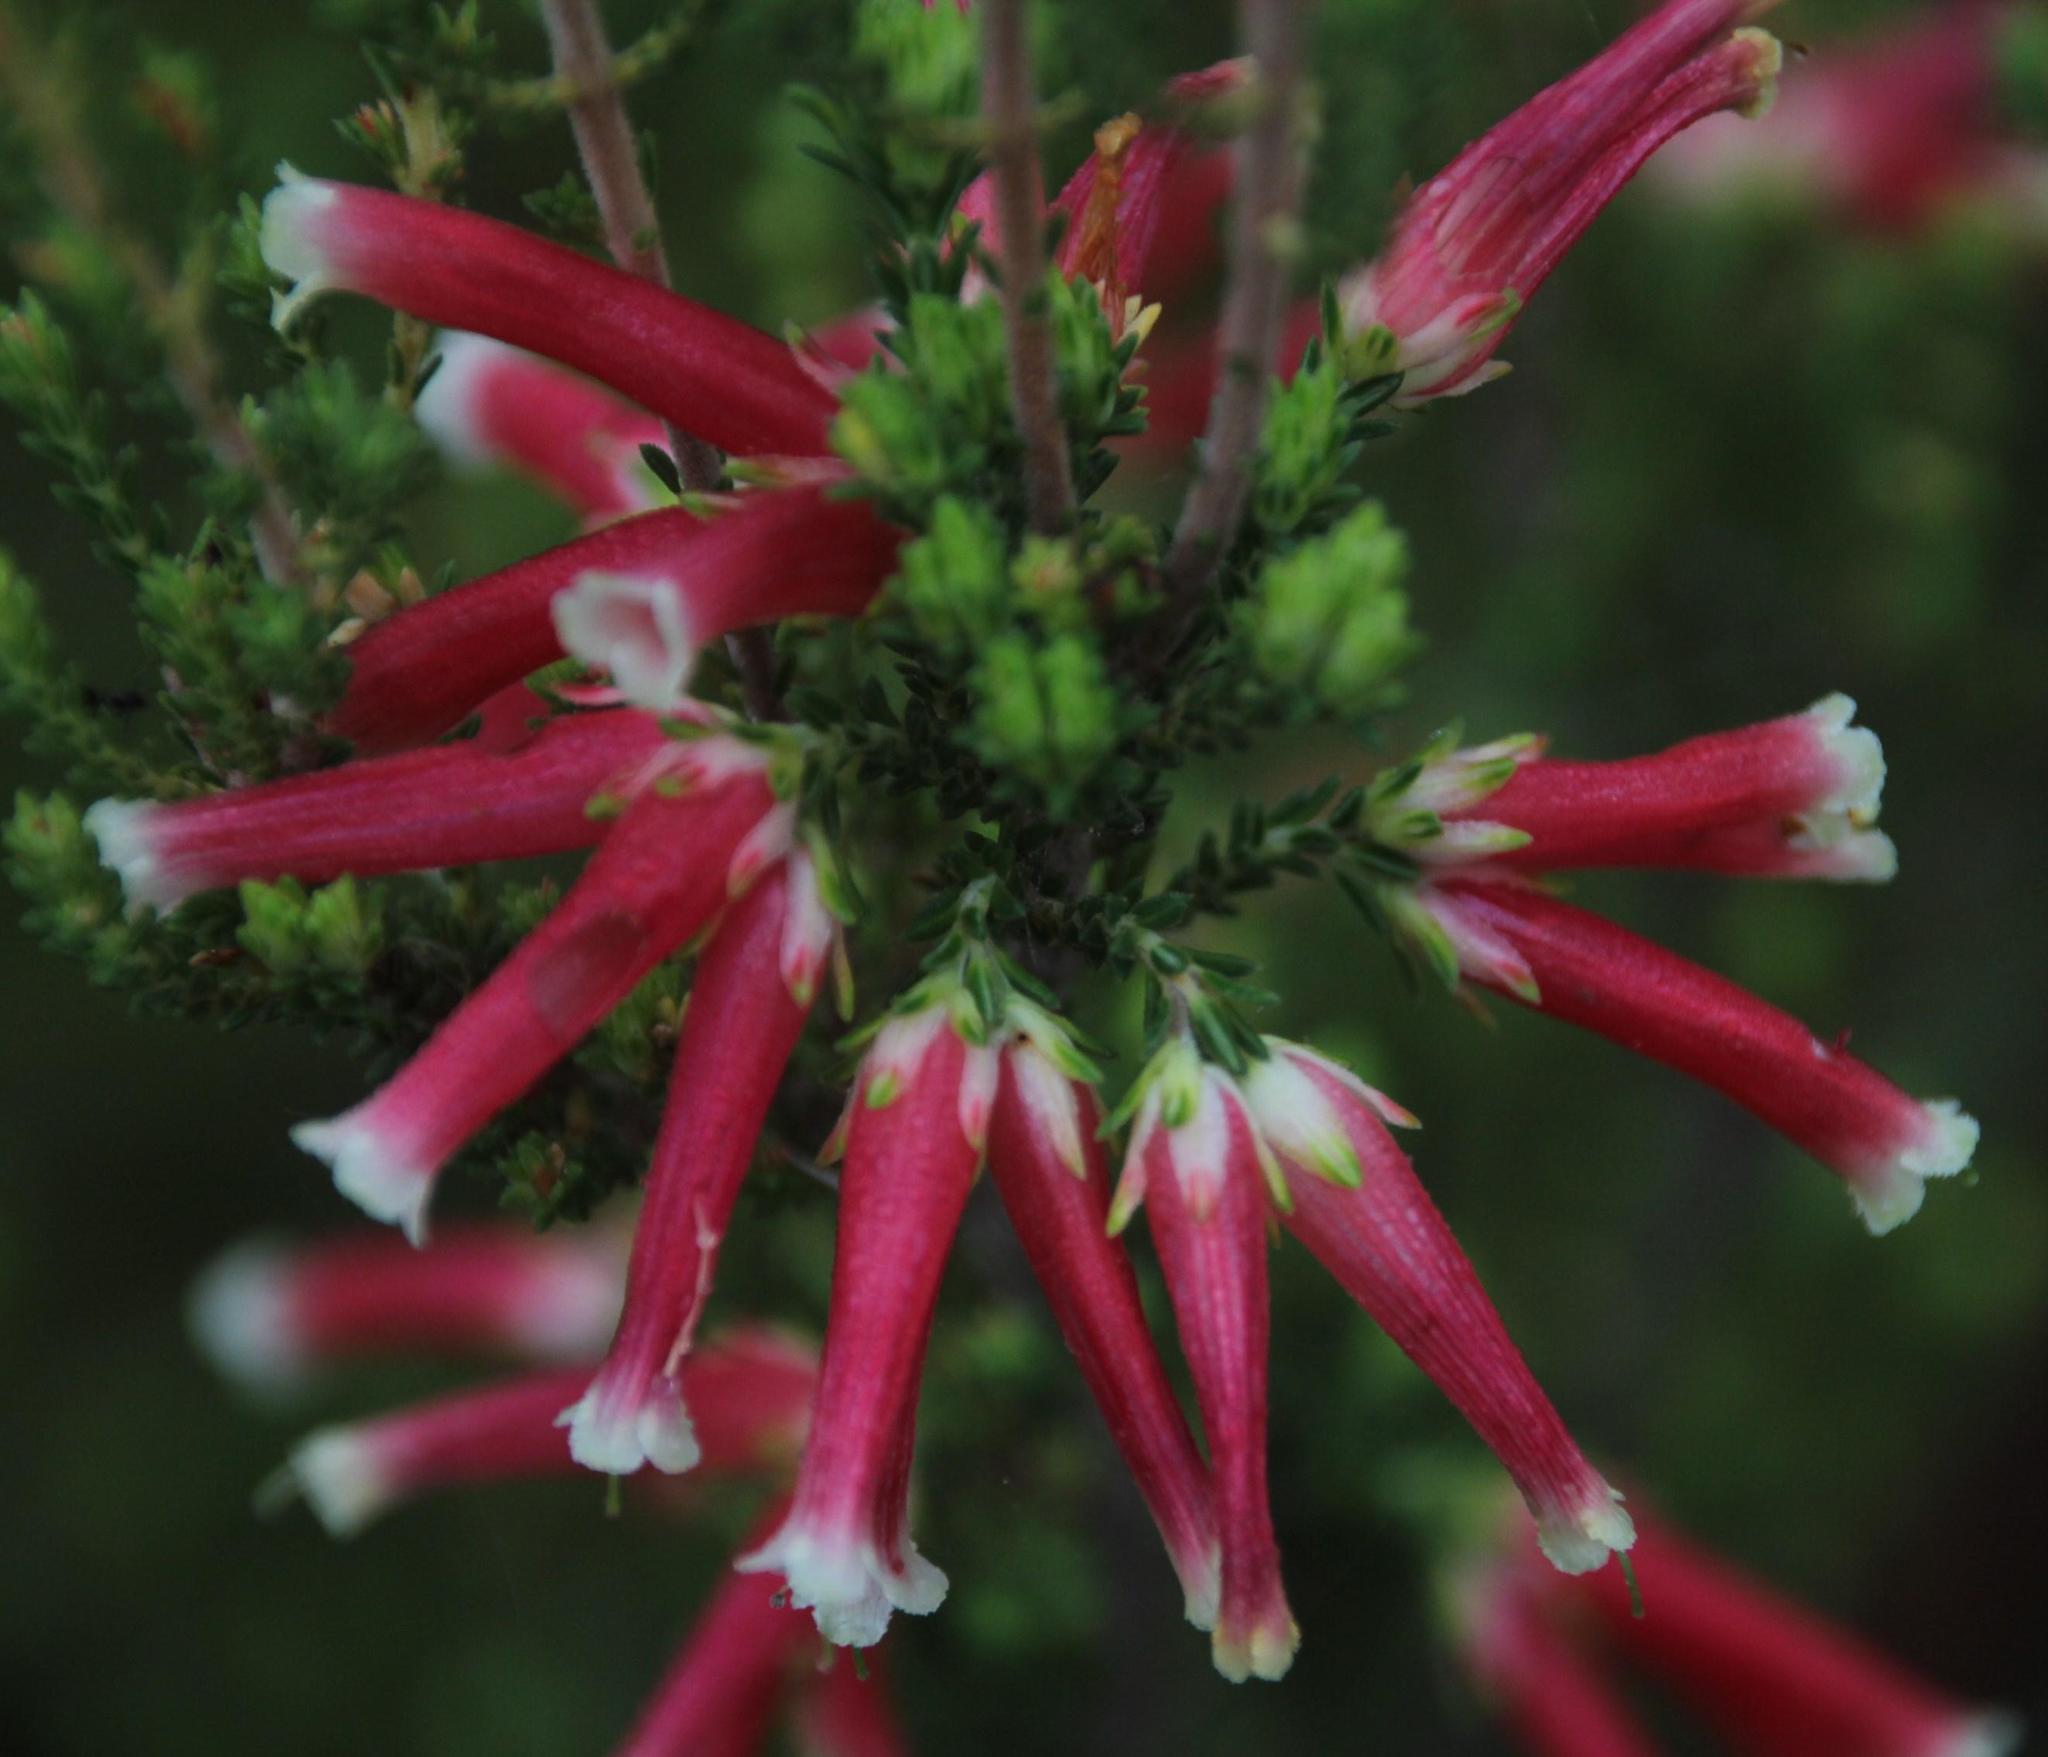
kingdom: Plantae
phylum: Tracheophyta
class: Magnoliopsida
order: Ericales
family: Ericaceae
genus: Erica
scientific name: Erica versicolor
